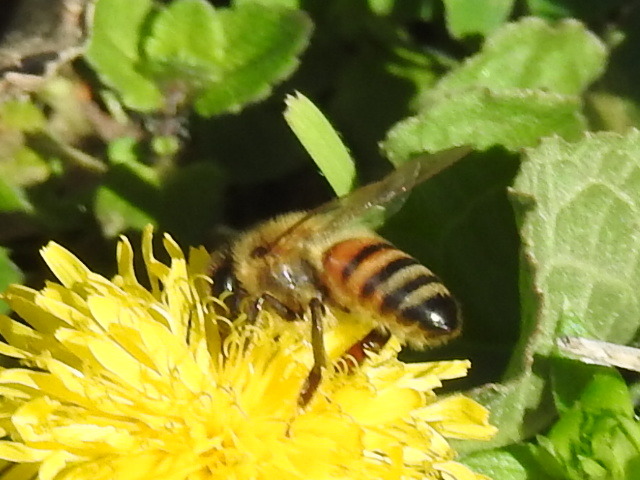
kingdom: Animalia
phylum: Arthropoda
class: Insecta
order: Hymenoptera
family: Apidae
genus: Apis
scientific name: Apis mellifera
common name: Honey bee
